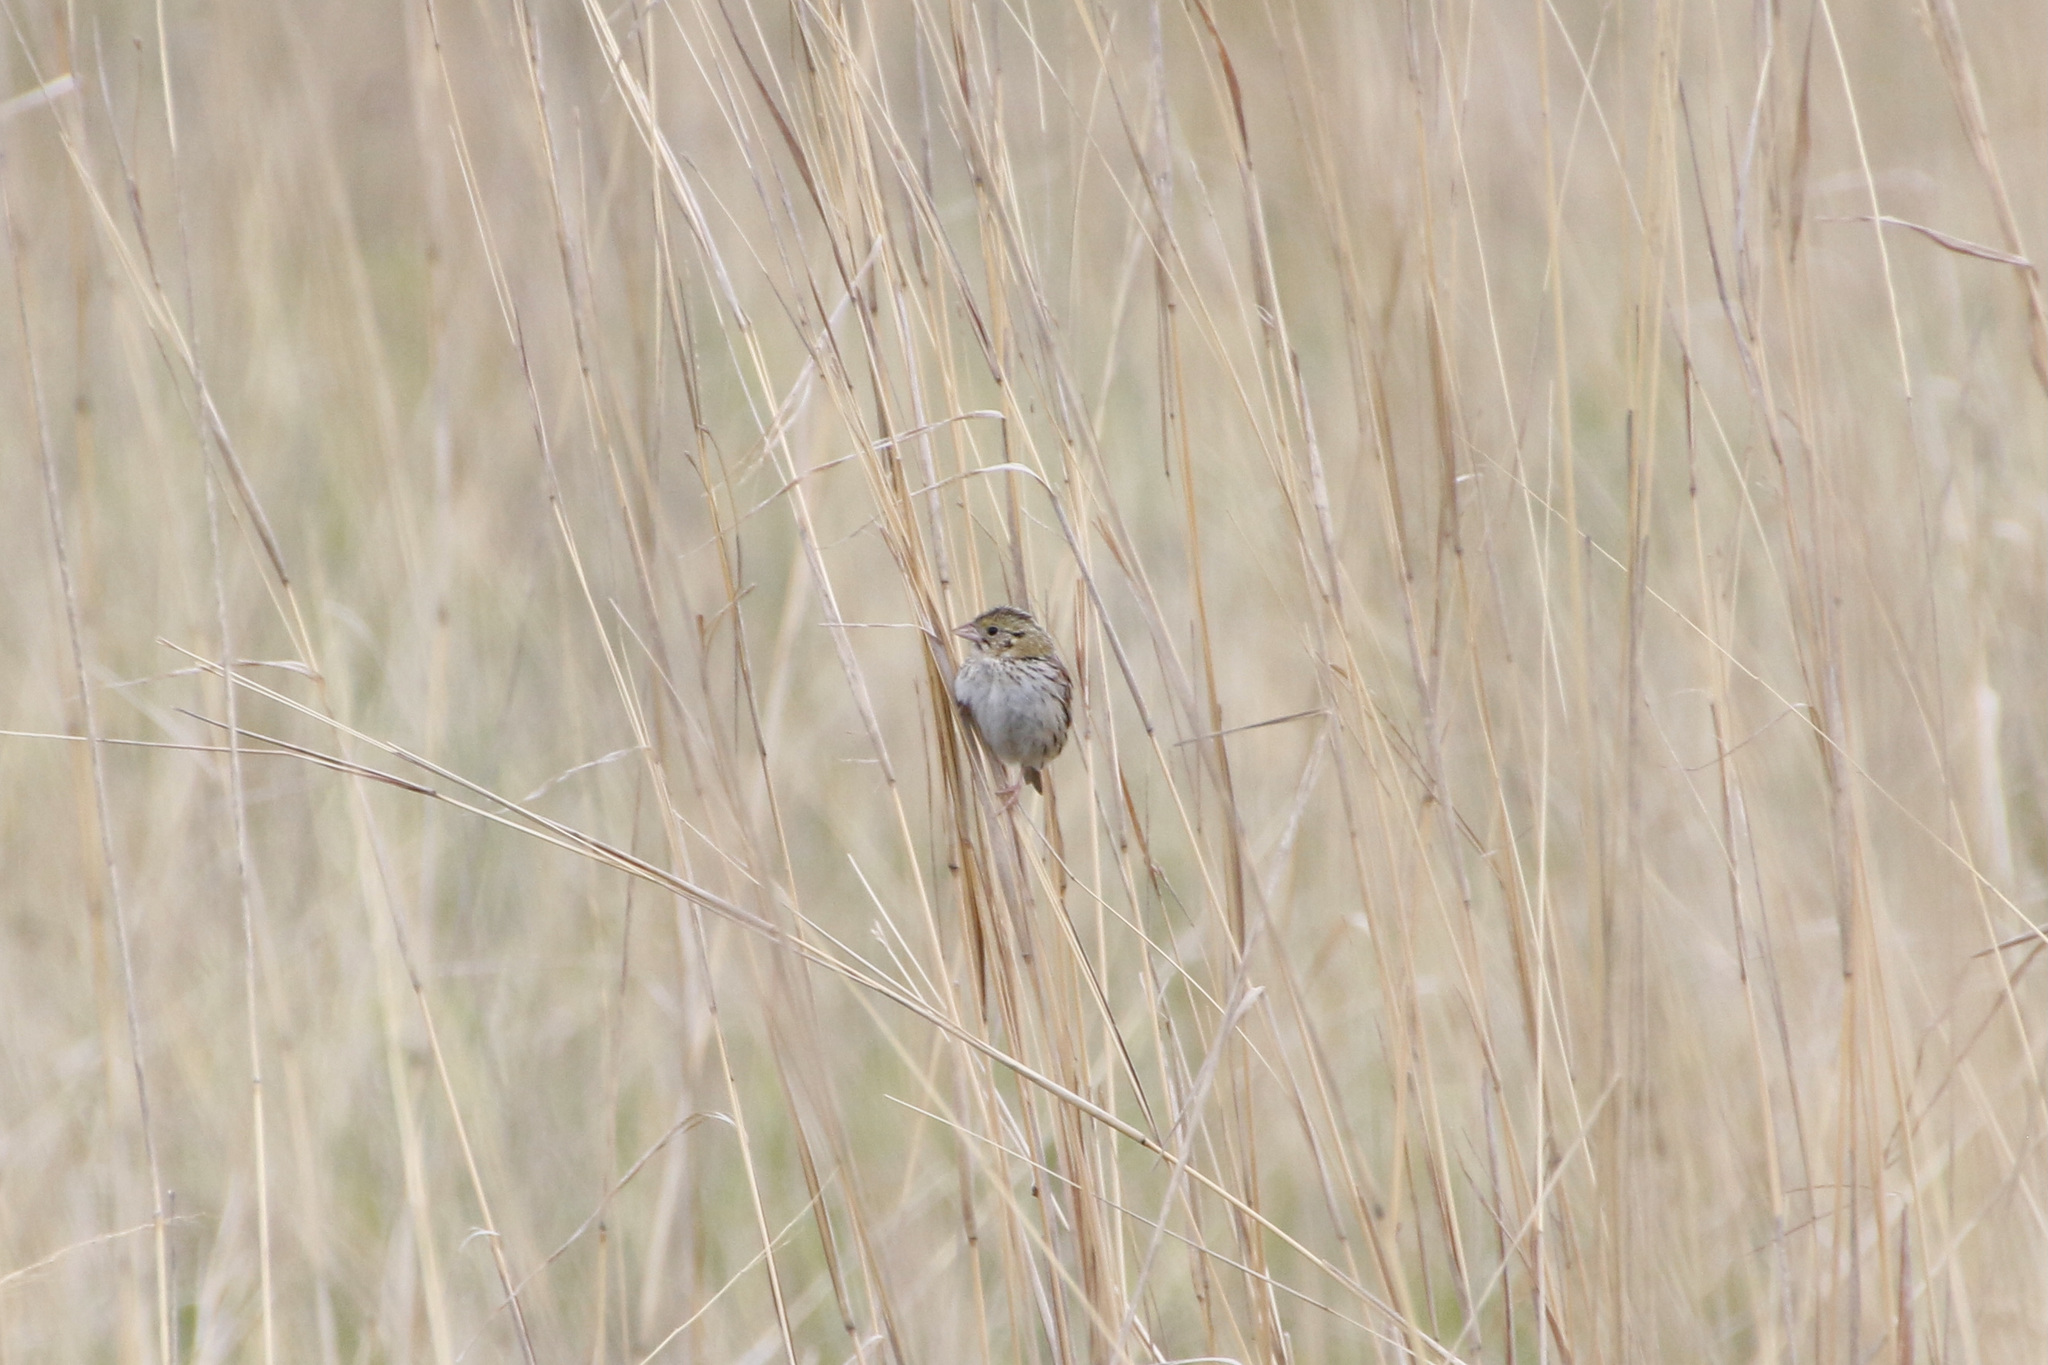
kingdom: Animalia
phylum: Chordata
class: Aves
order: Passeriformes
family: Passerellidae
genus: Centronyx
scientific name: Centronyx henslowii
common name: Henslow's sparrow
